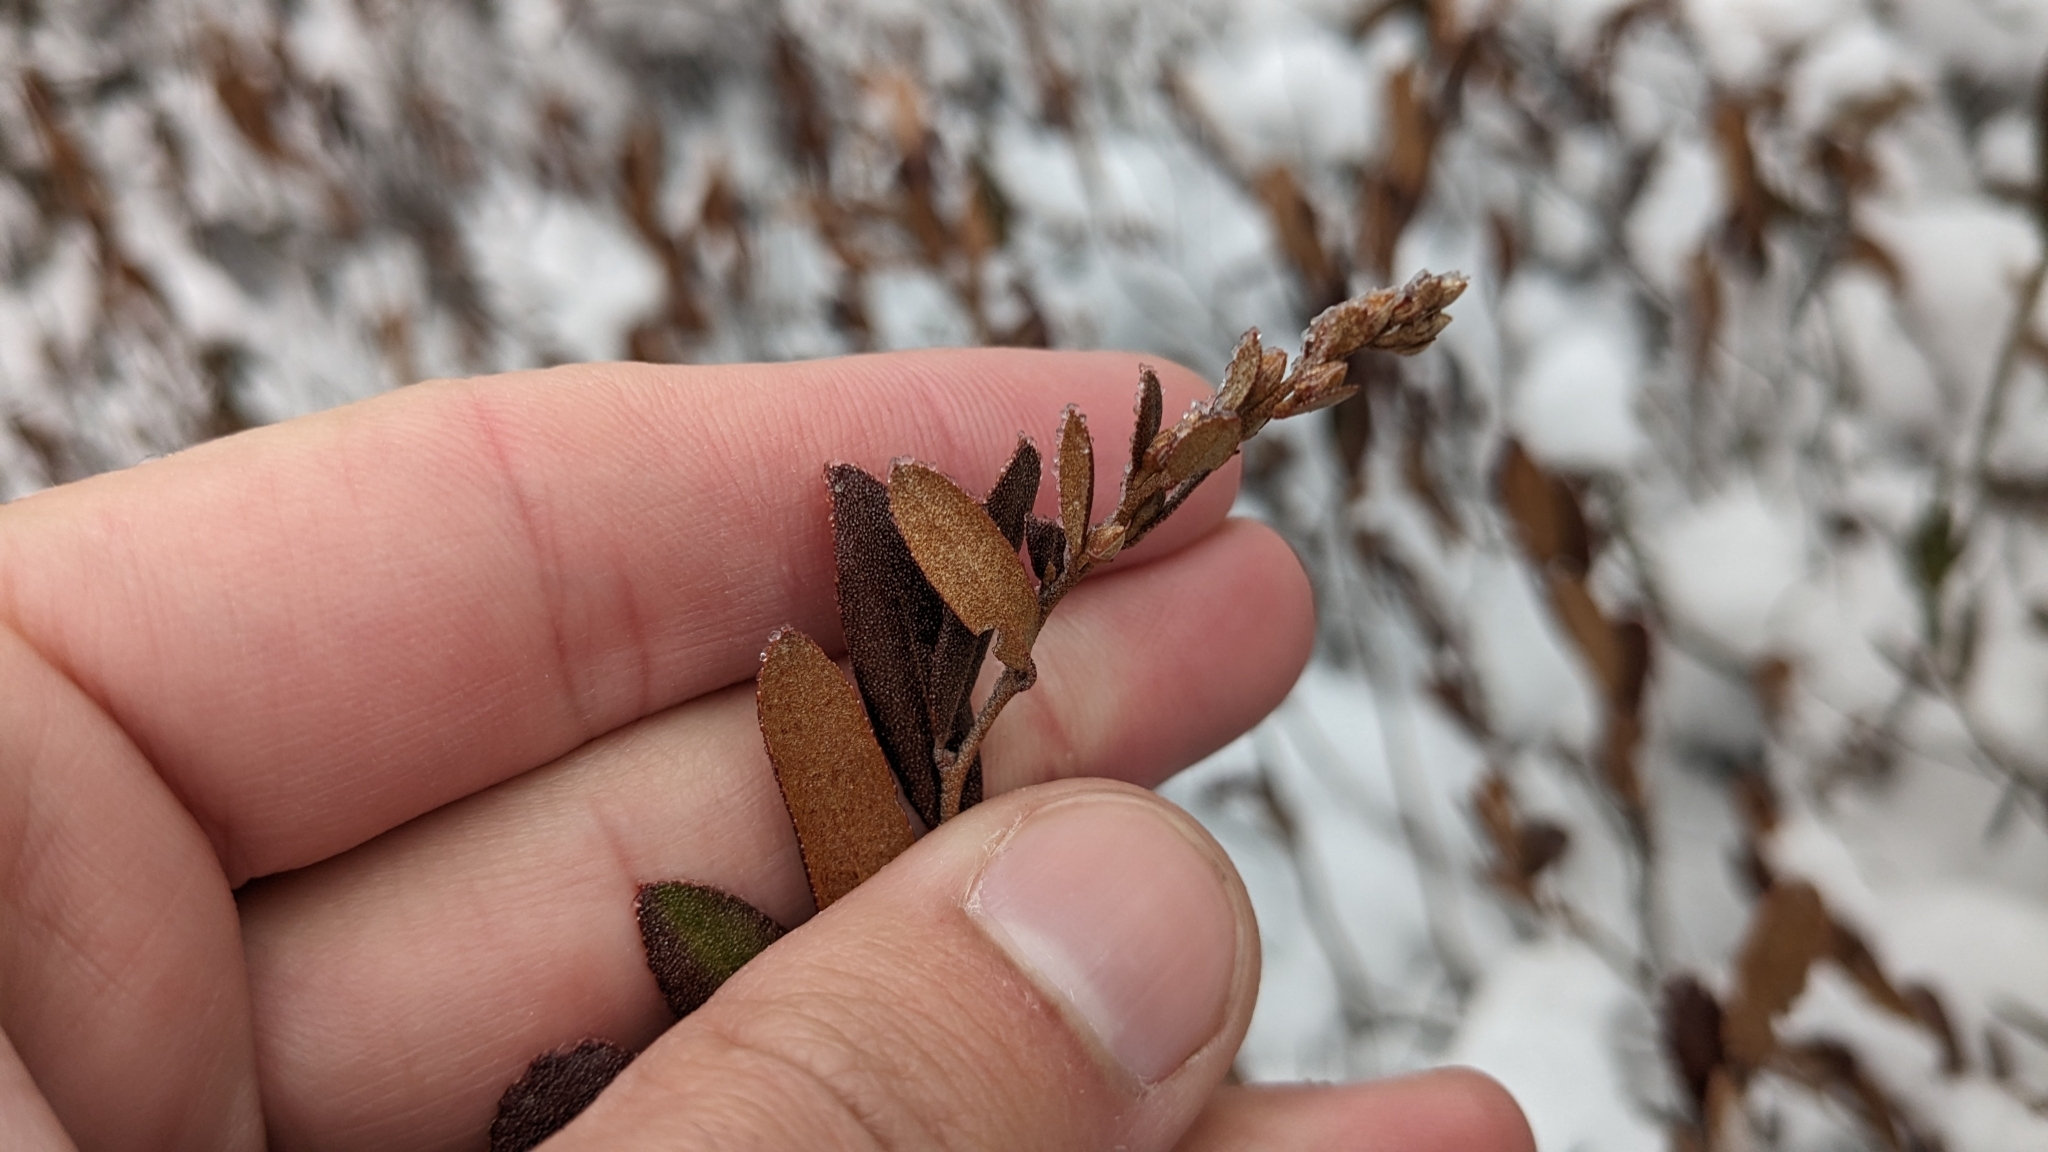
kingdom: Plantae
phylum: Tracheophyta
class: Magnoliopsida
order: Ericales
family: Ericaceae
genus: Chamaedaphne
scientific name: Chamaedaphne calyculata
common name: Leatherleaf
